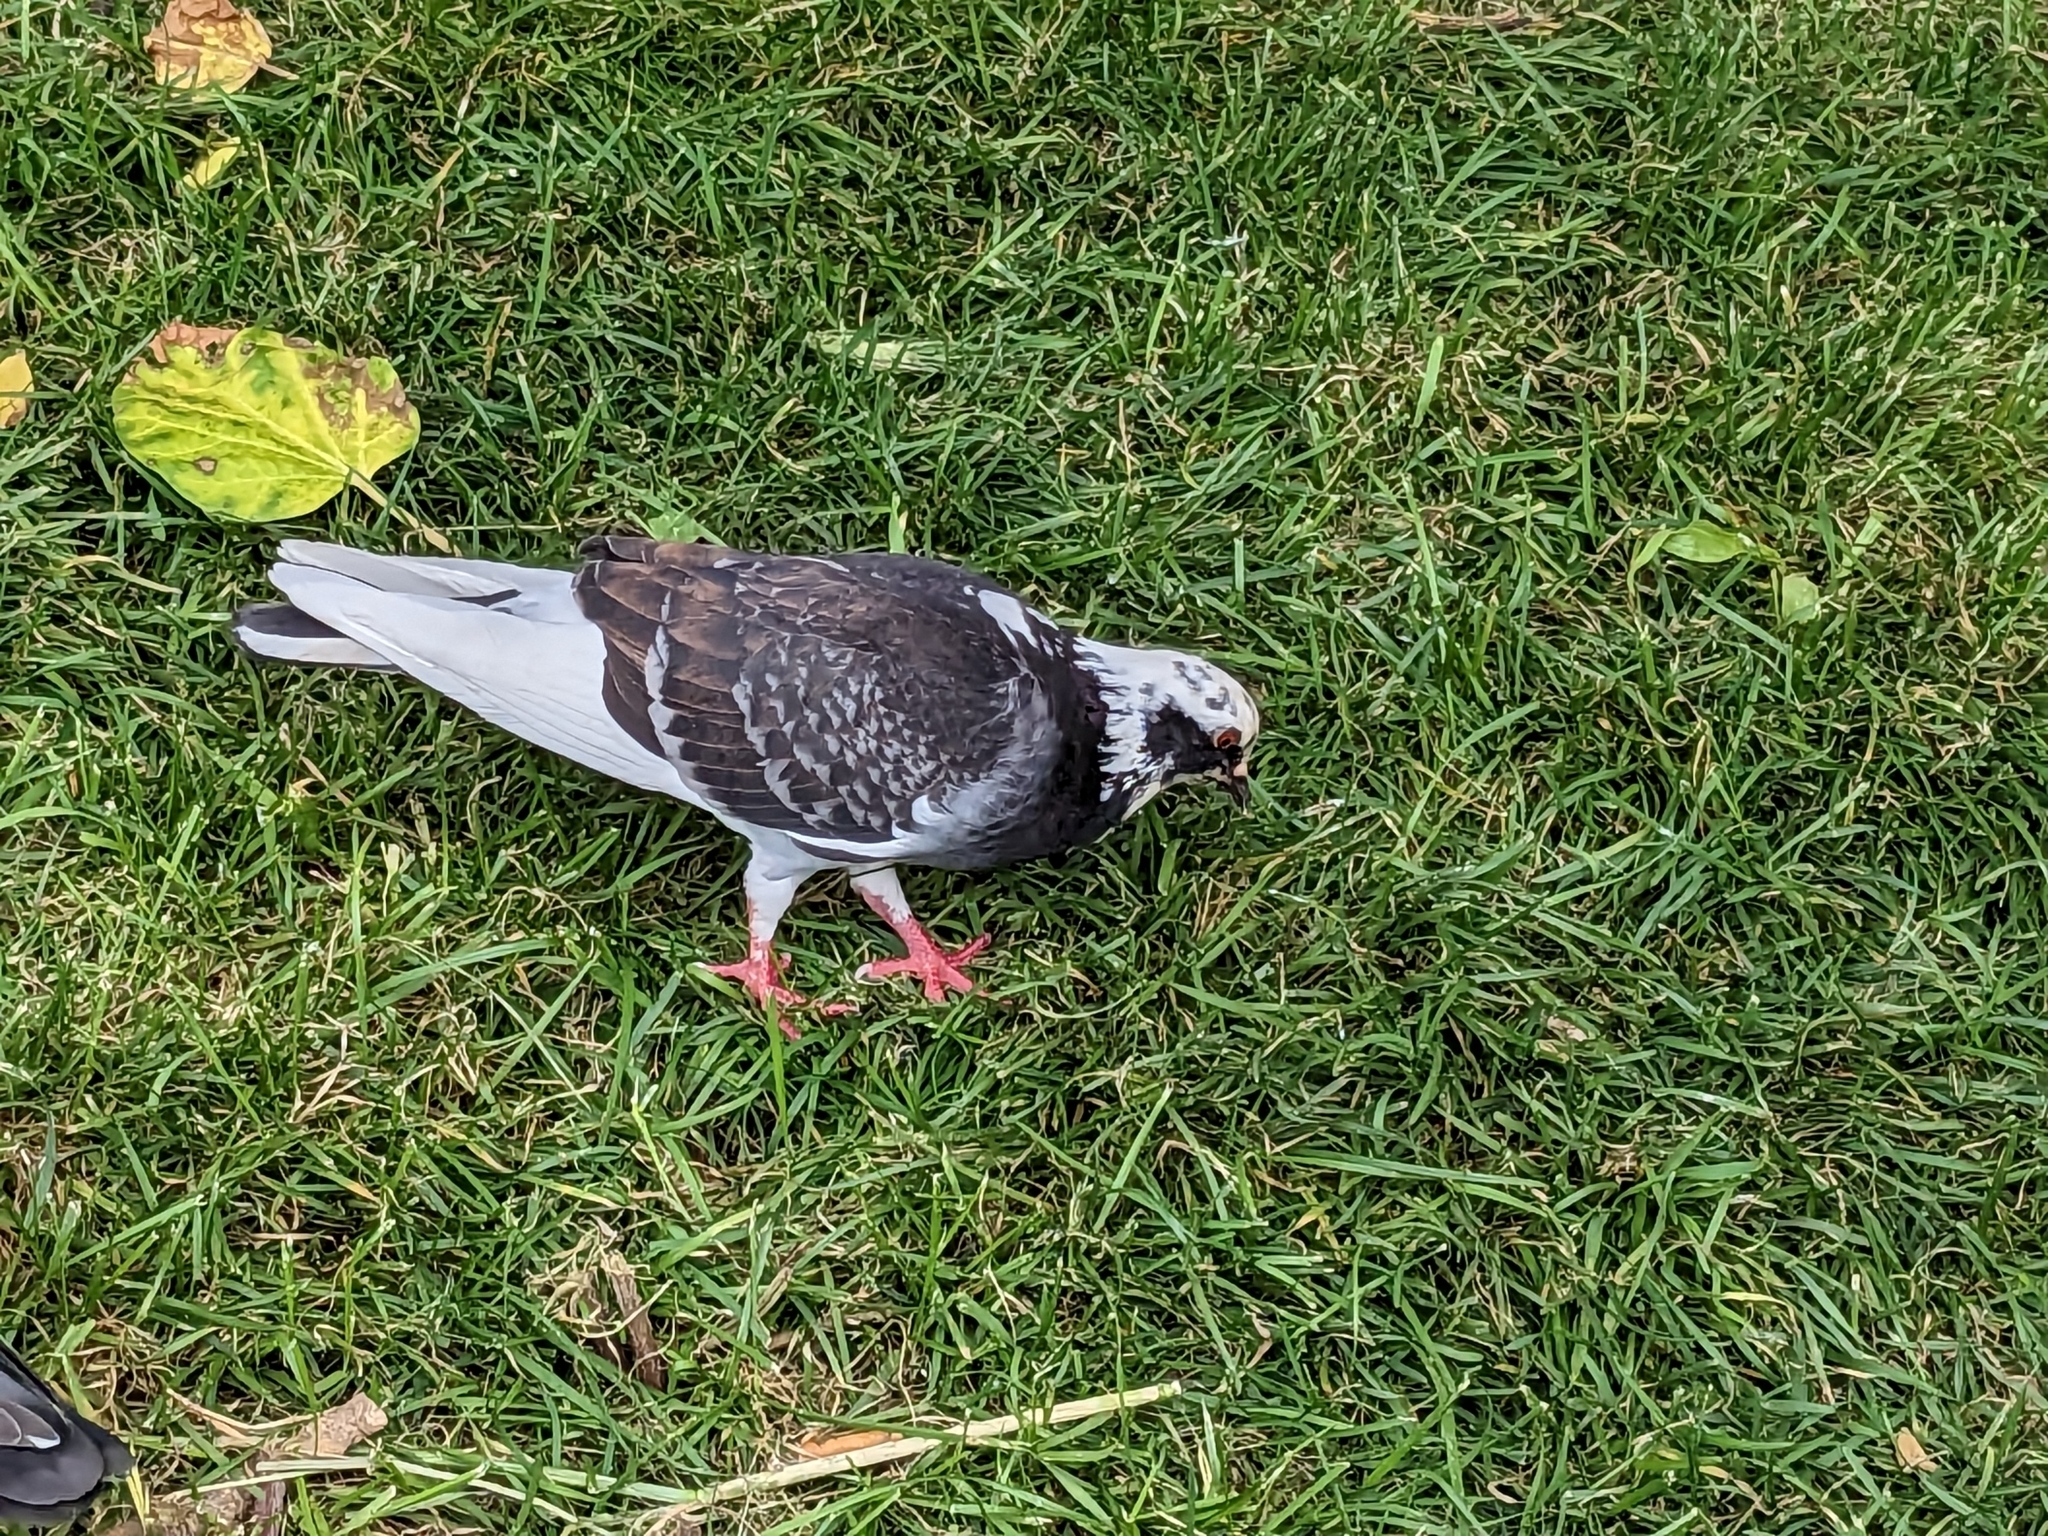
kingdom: Animalia
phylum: Chordata
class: Aves
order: Columbiformes
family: Columbidae
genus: Columba
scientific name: Columba livia
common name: Rock pigeon
